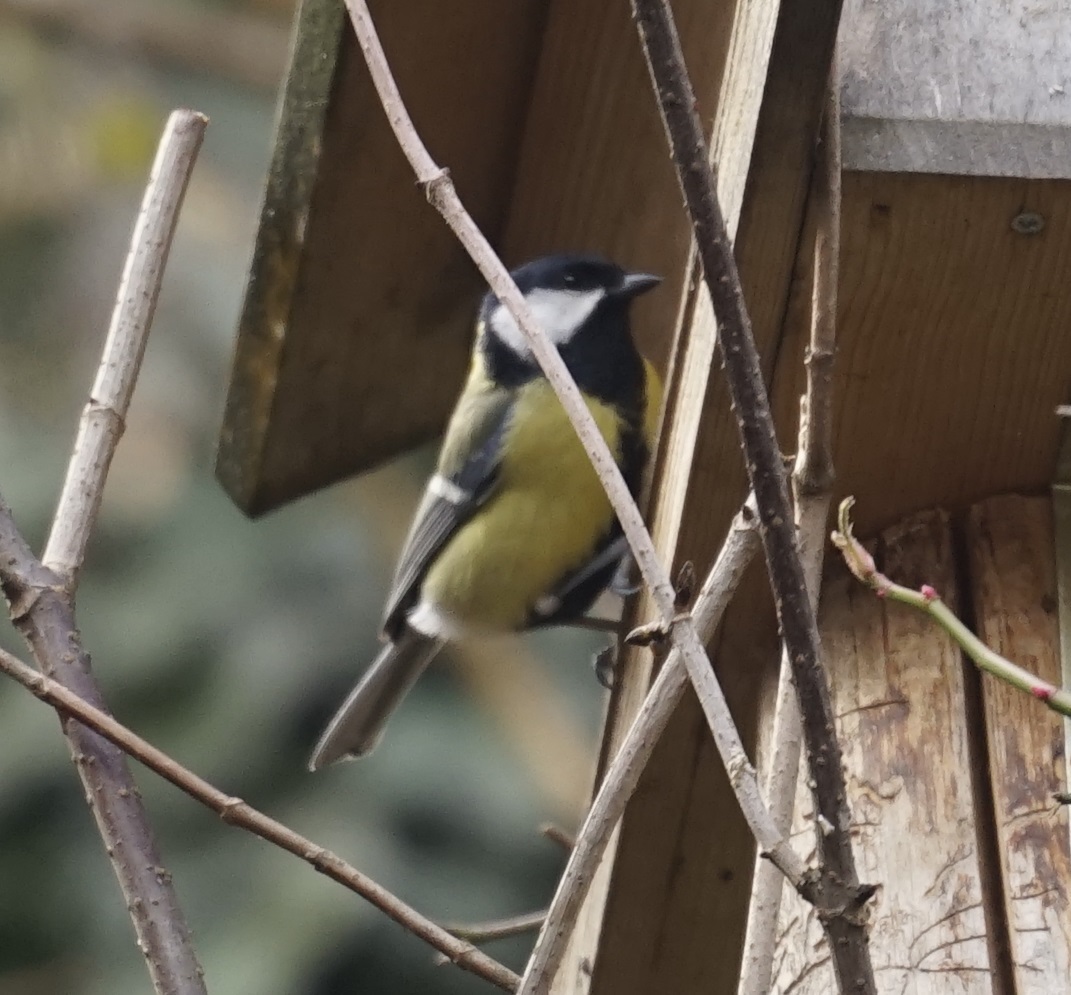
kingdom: Animalia
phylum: Chordata
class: Aves
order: Passeriformes
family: Paridae
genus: Parus
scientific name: Parus major
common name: Great tit
